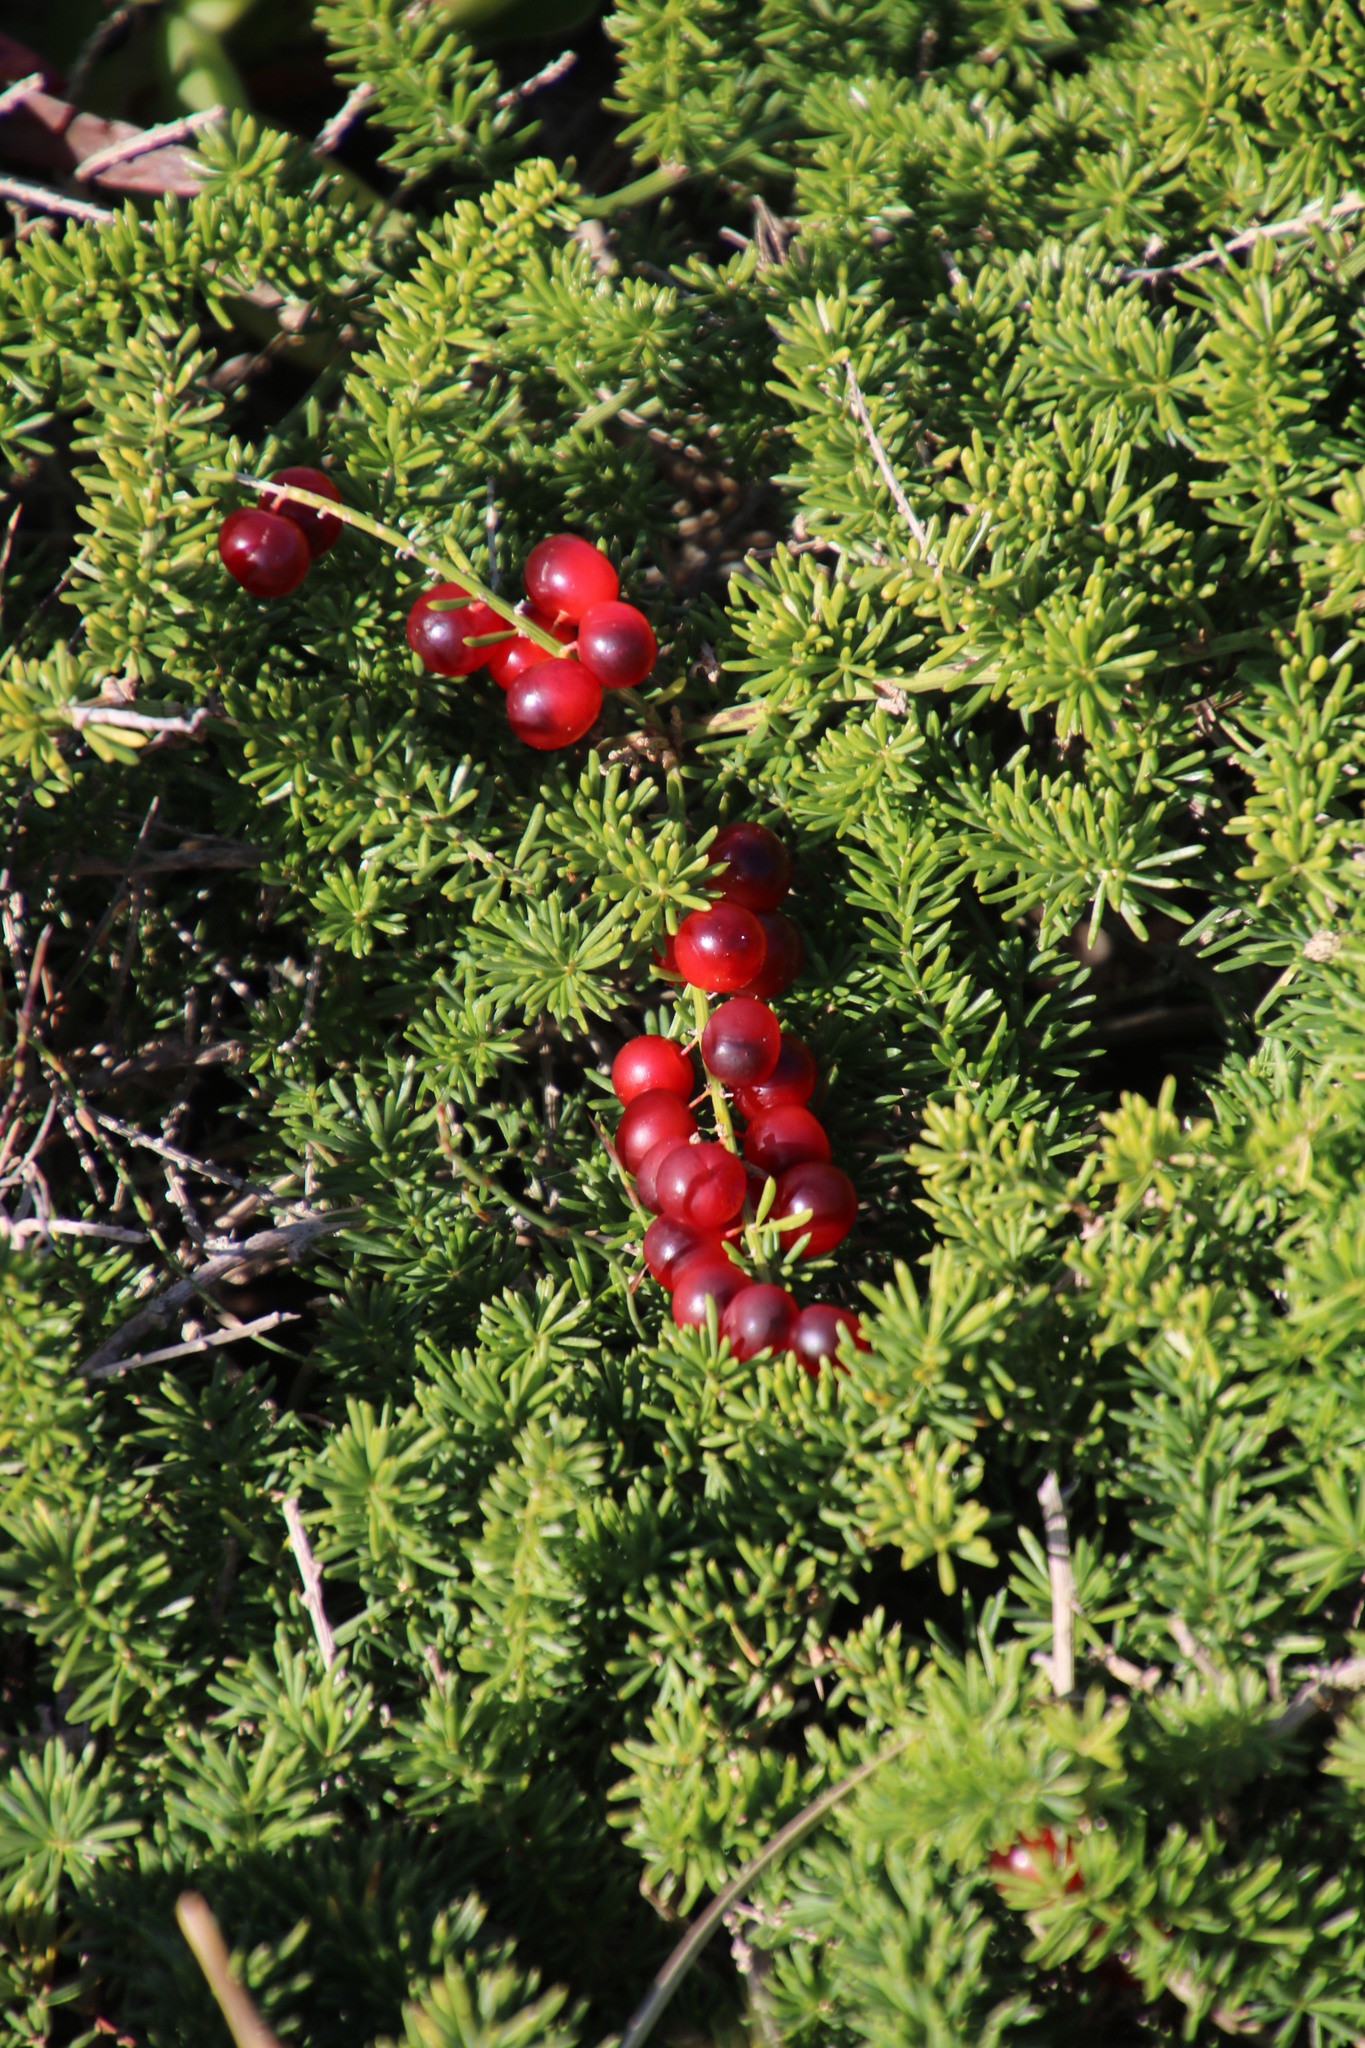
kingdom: Plantae
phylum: Tracheophyta
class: Liliopsida
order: Asparagales
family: Asparagaceae
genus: Asparagus
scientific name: Asparagus densiflorus
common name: Asparagus fern
